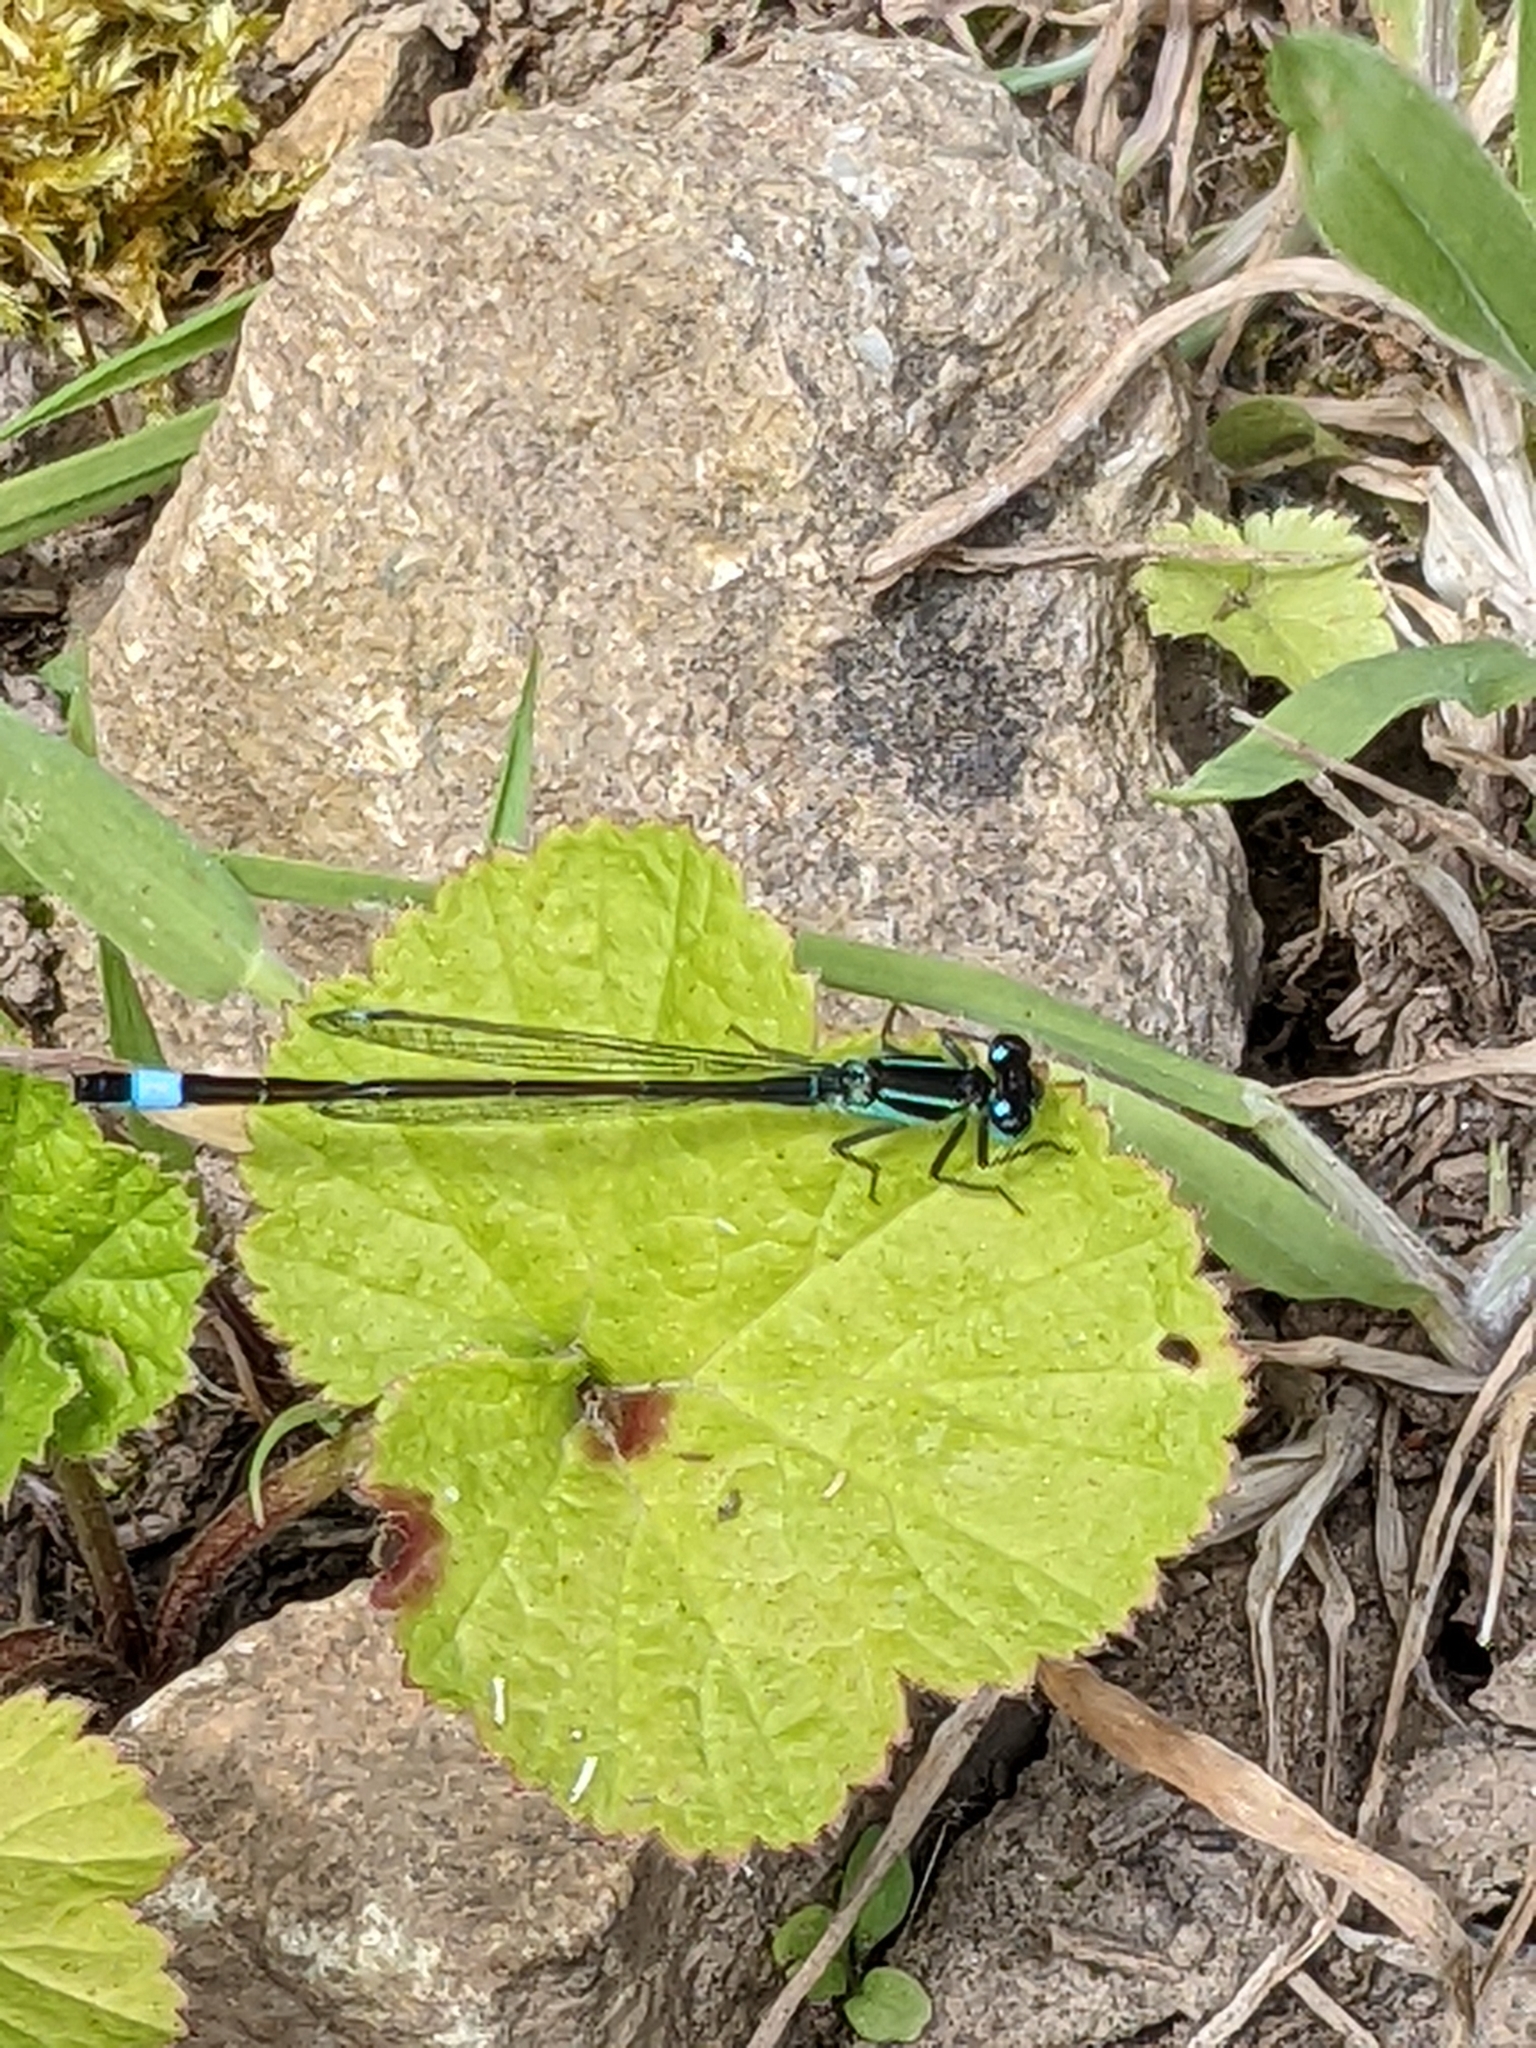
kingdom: Animalia
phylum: Arthropoda
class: Insecta
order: Odonata
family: Coenagrionidae
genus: Ischnura
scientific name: Ischnura elegans
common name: Blue-tailed damselfly
